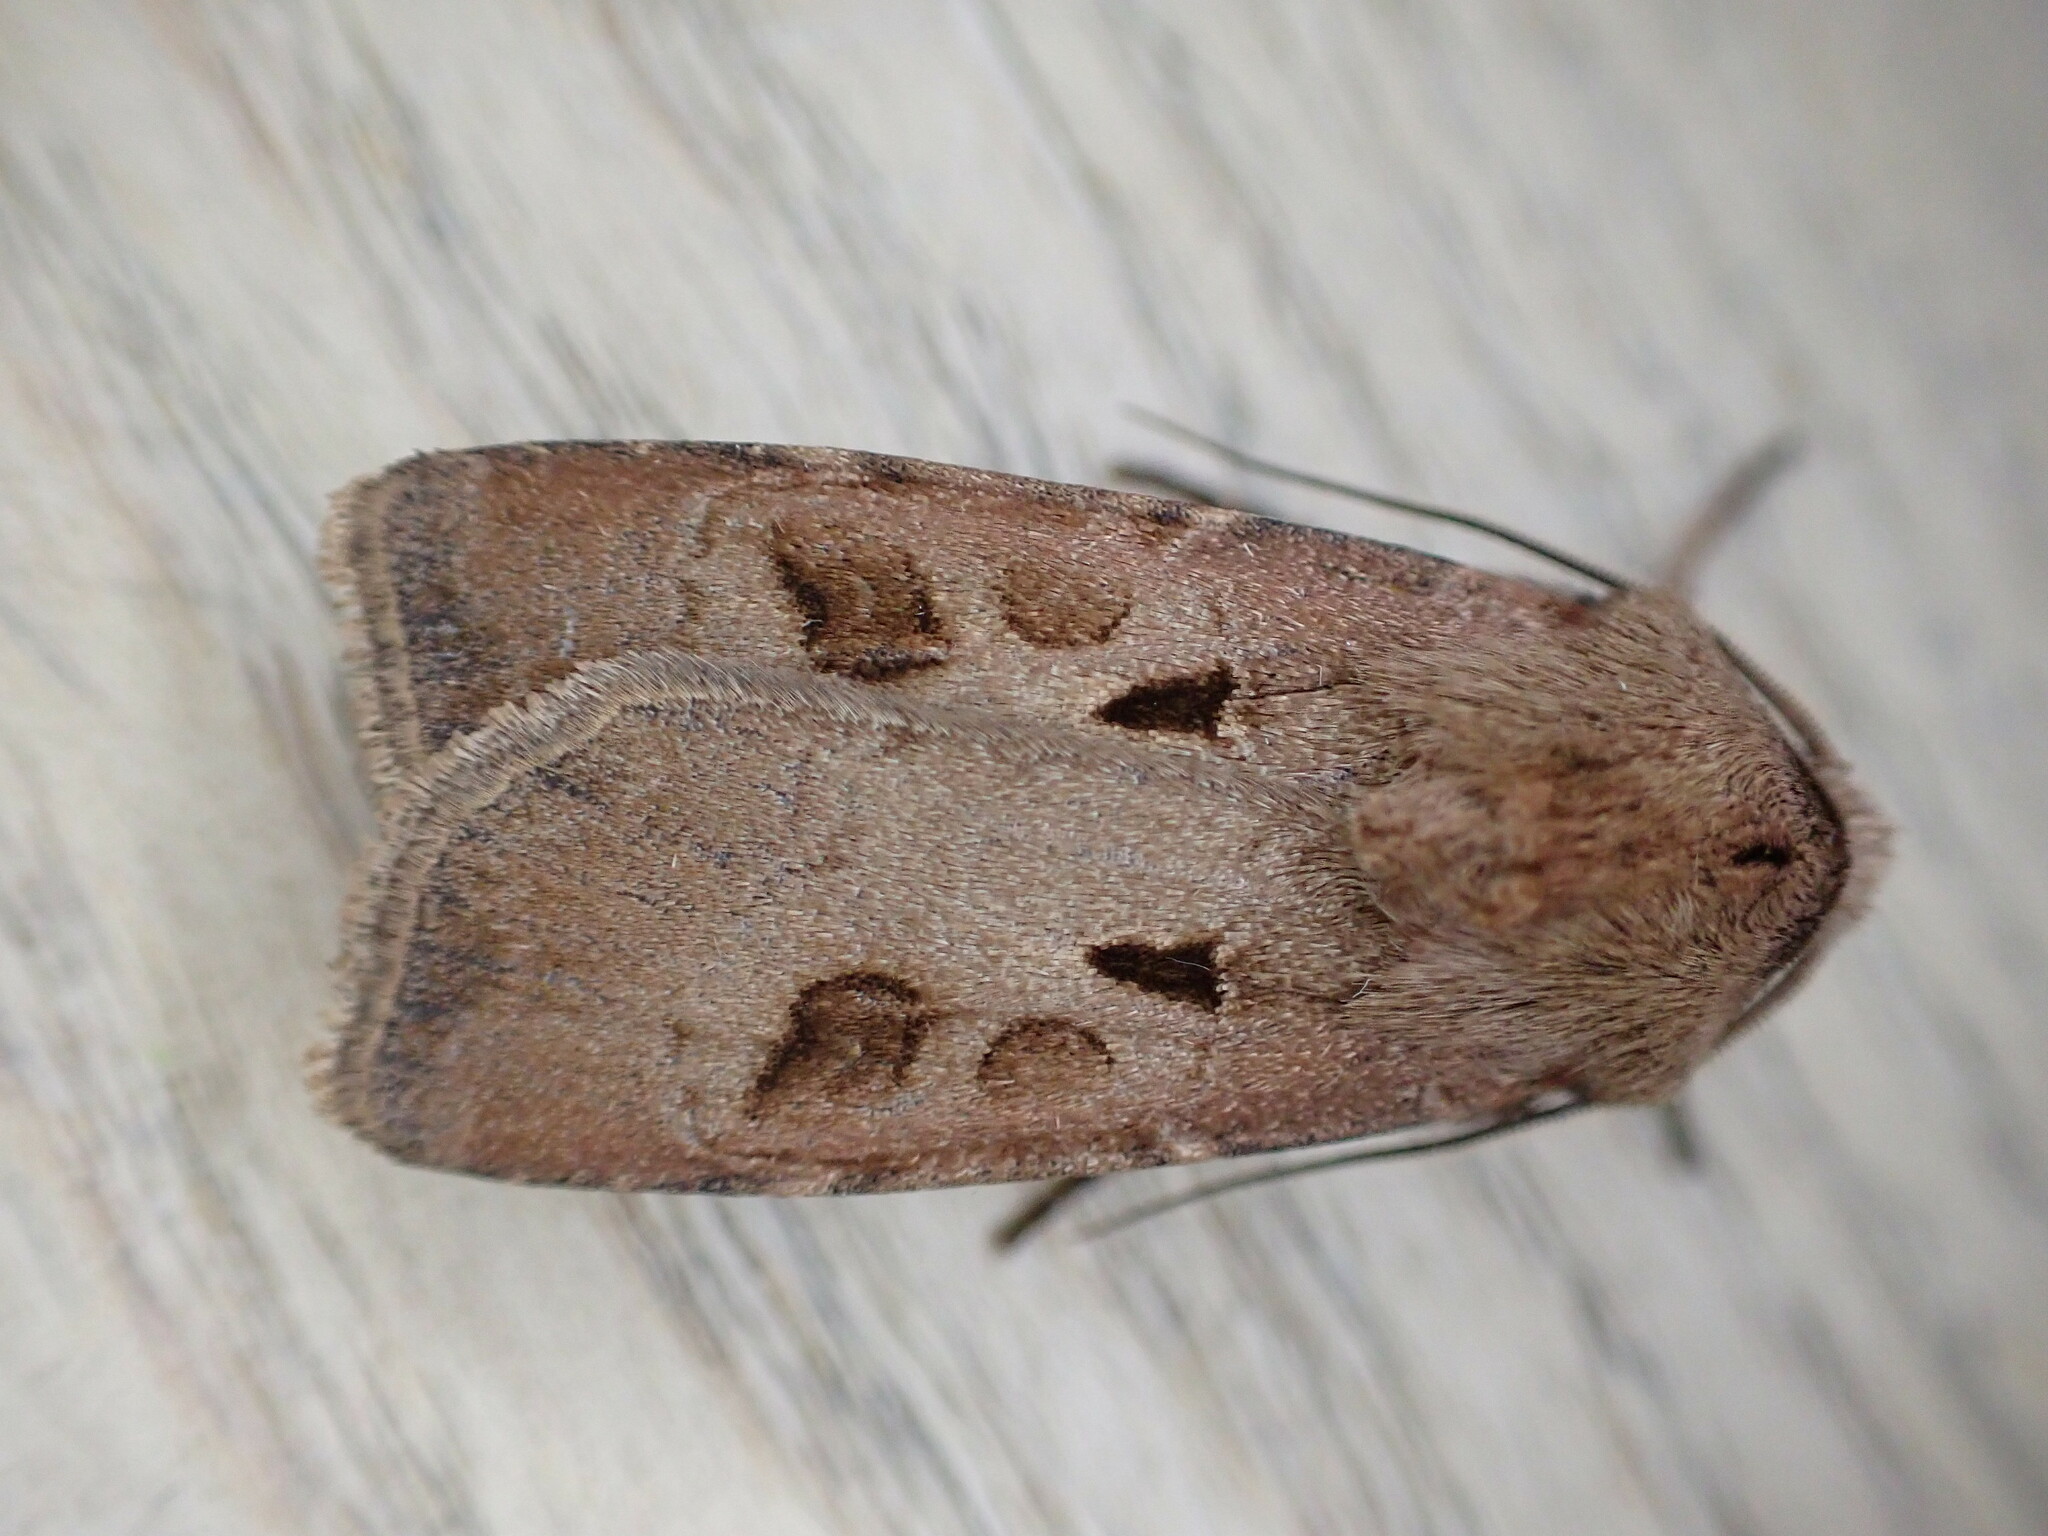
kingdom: Animalia
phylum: Arthropoda
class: Insecta
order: Lepidoptera
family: Noctuidae
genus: Agrotis
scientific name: Agrotis exclamationis
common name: Heart and dart
